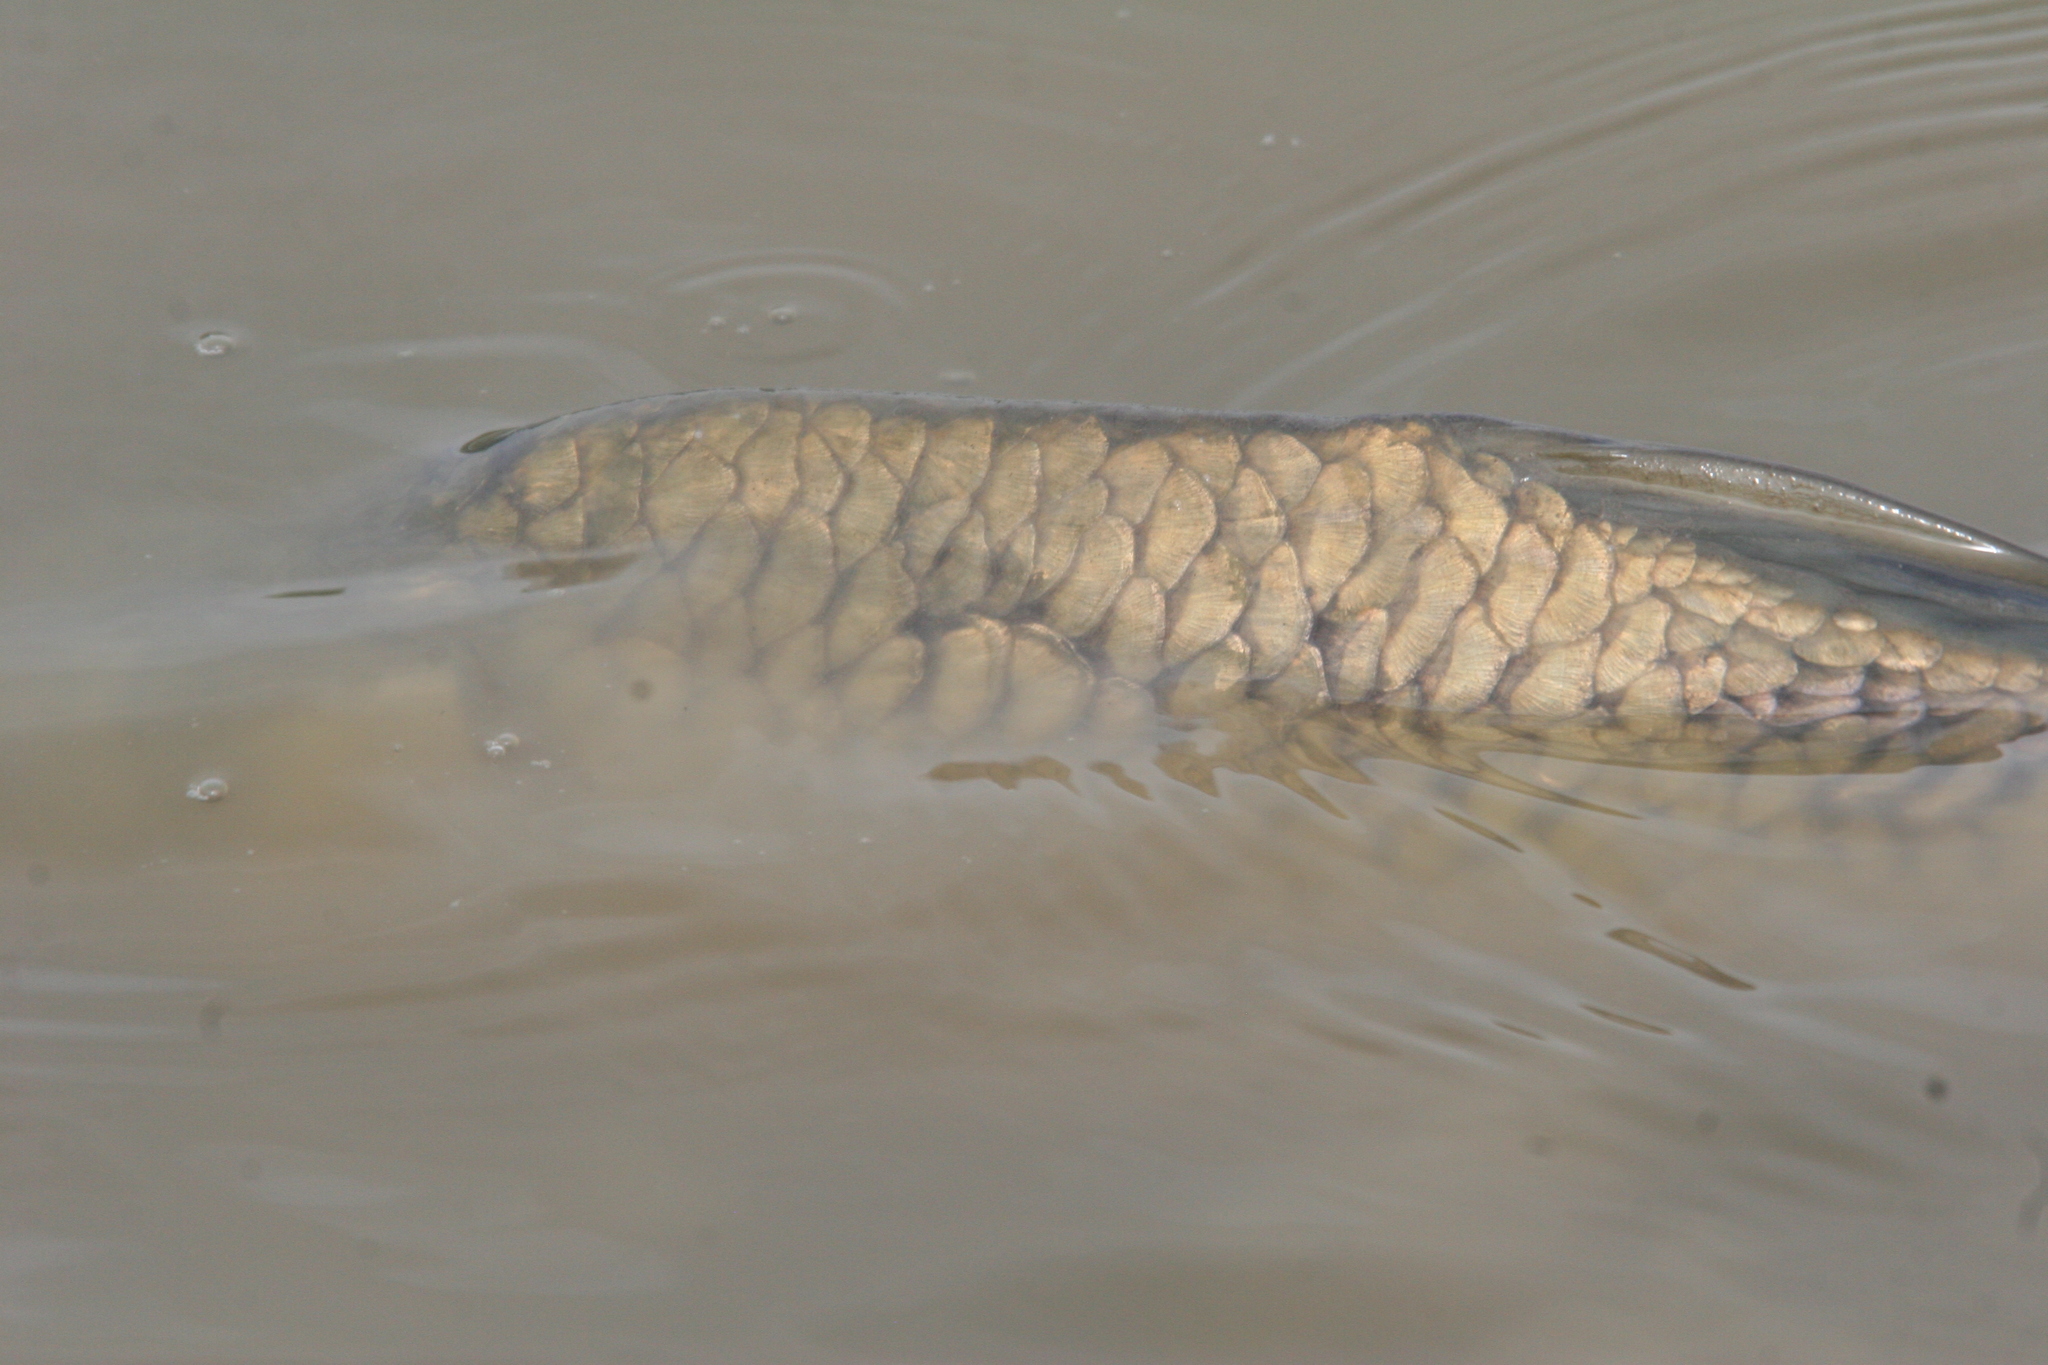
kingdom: Animalia
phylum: Chordata
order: Cypriniformes
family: Cyprinidae
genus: Cyprinus
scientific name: Cyprinus carpio
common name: Common carp
